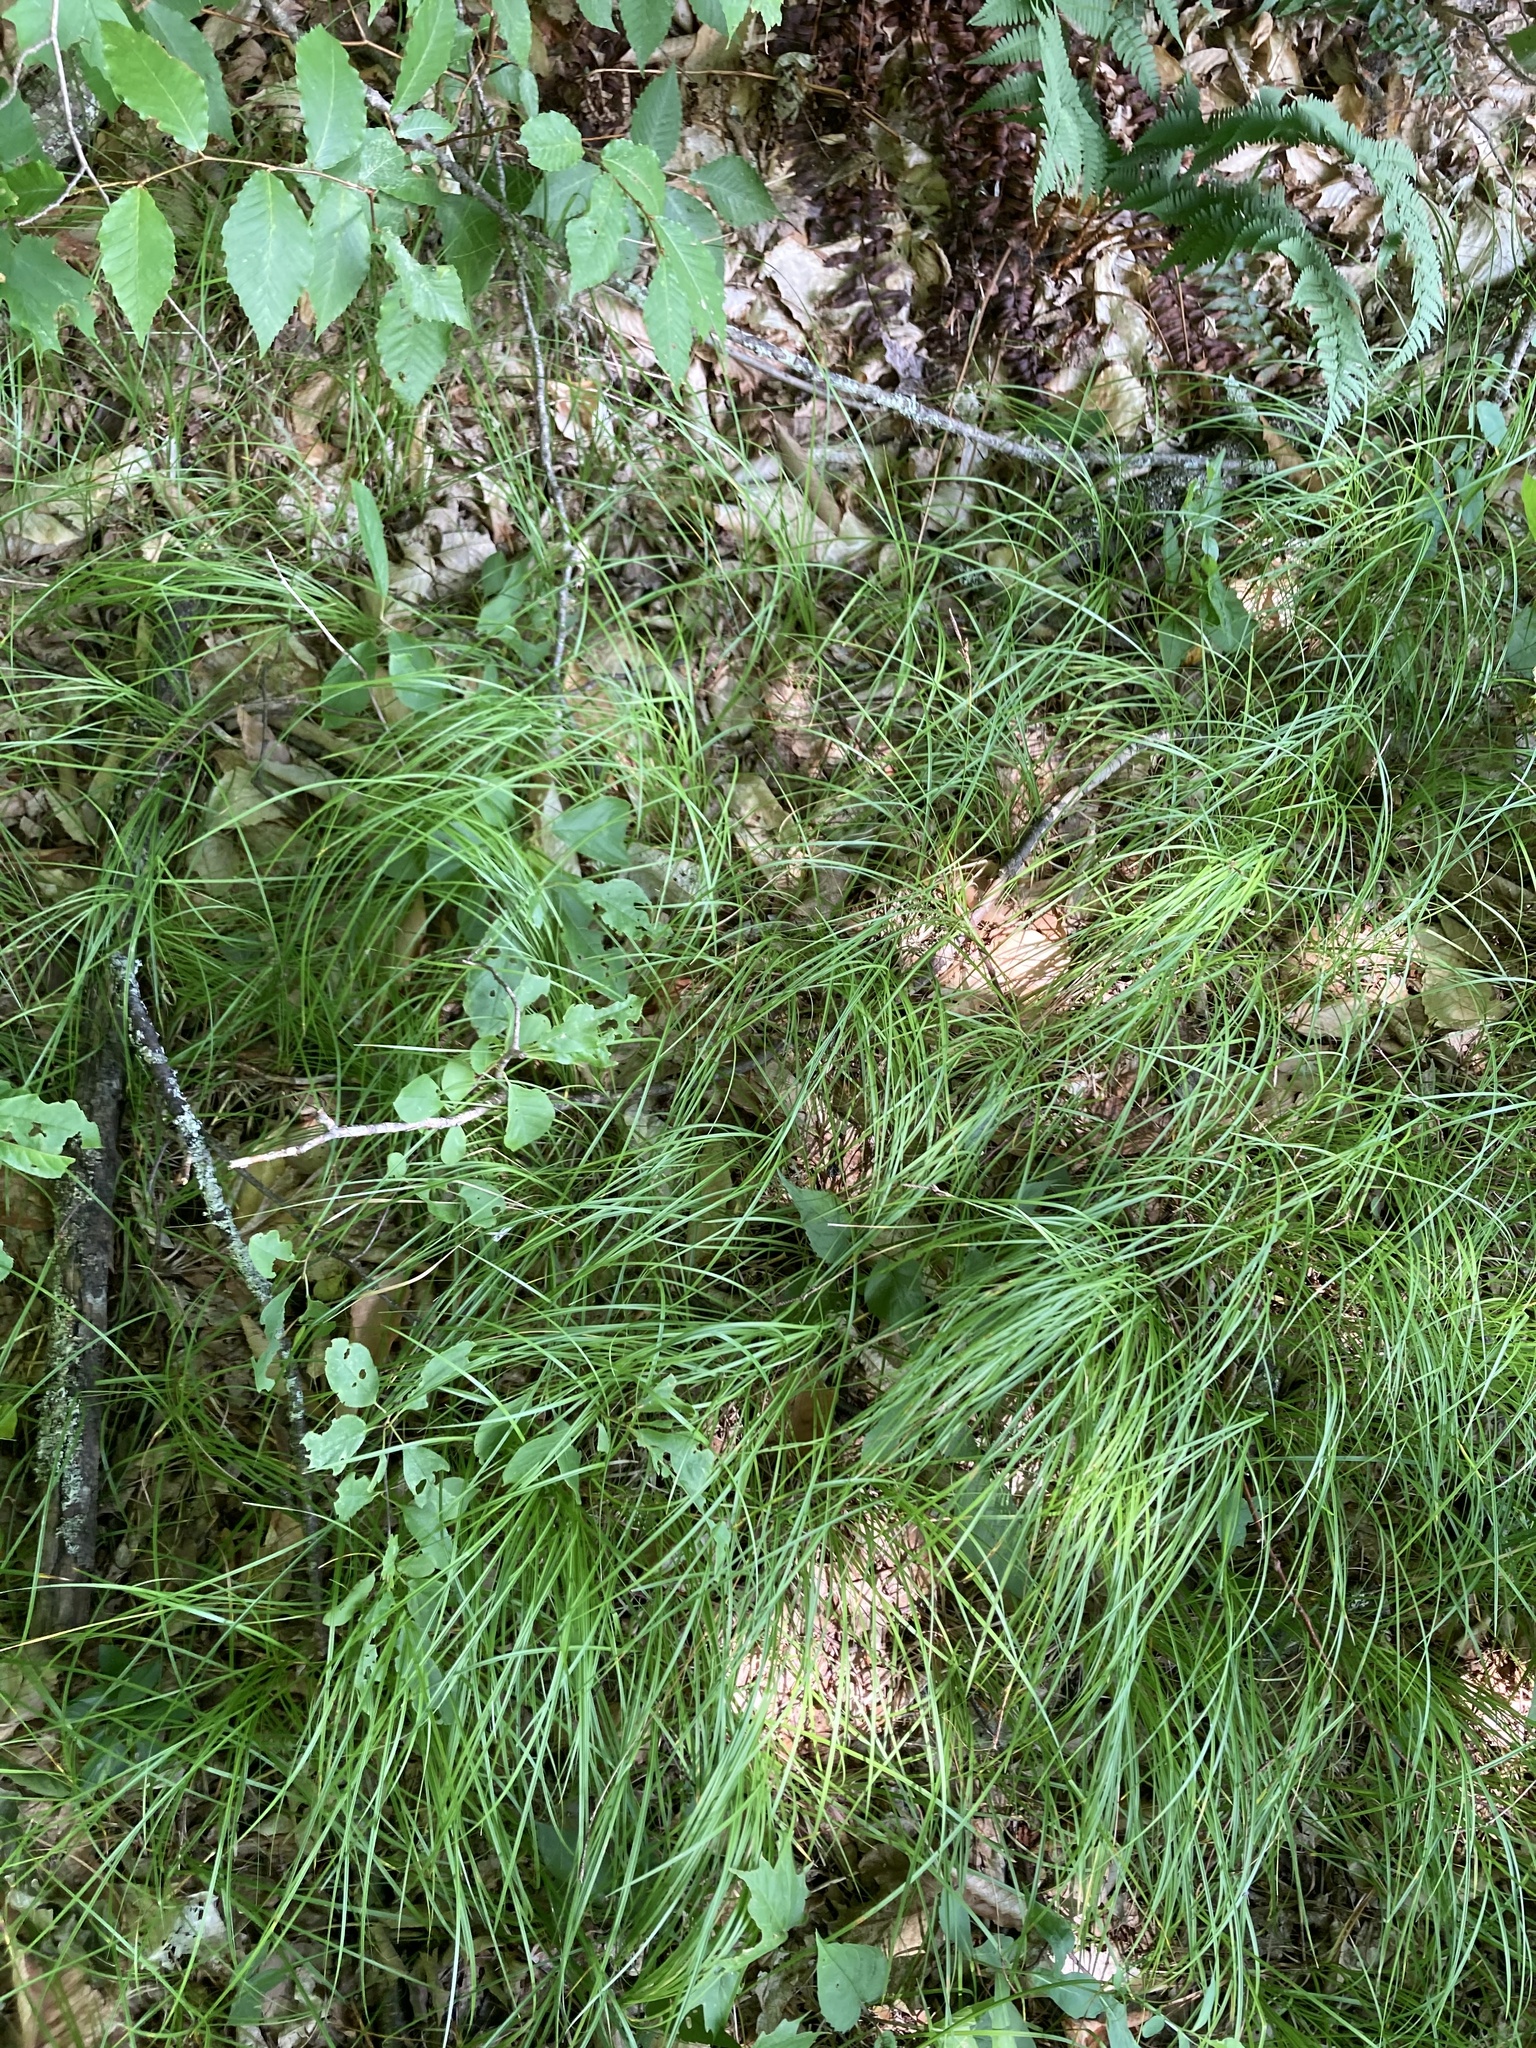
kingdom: Plantae
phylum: Tracheophyta
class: Liliopsida
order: Poales
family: Cyperaceae
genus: Carex
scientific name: Carex pensylvanica
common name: Common oak sedge
